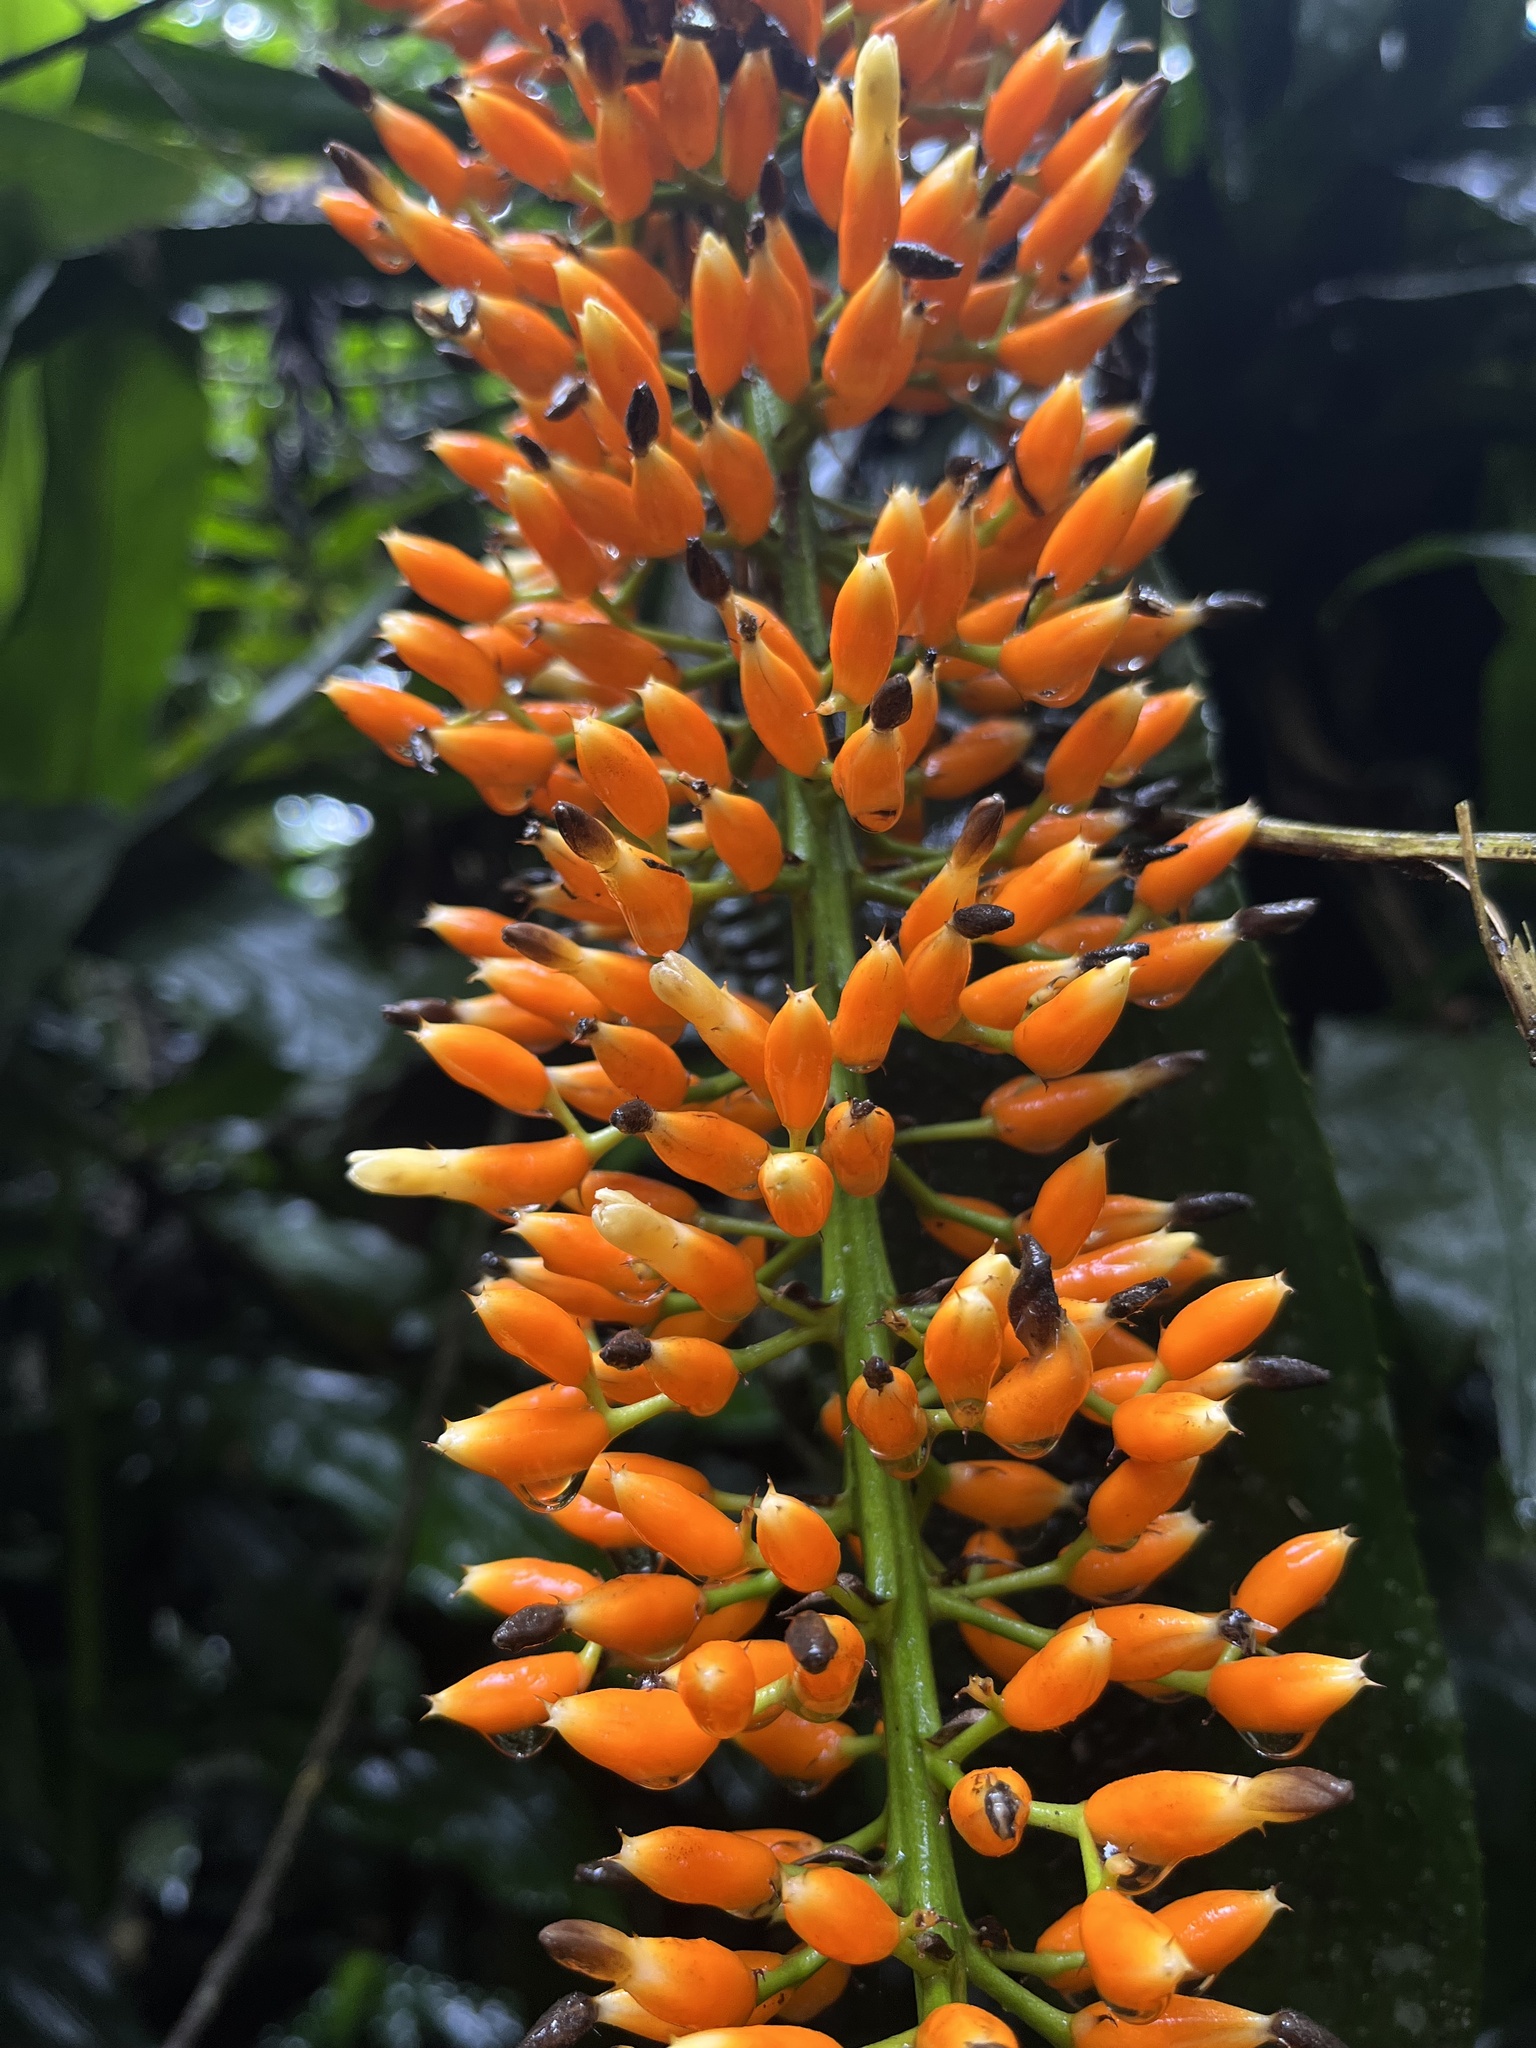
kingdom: Plantae
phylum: Tracheophyta
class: Liliopsida
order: Poales
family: Bromeliaceae
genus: Aechmea
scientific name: Aechmea latifolia
